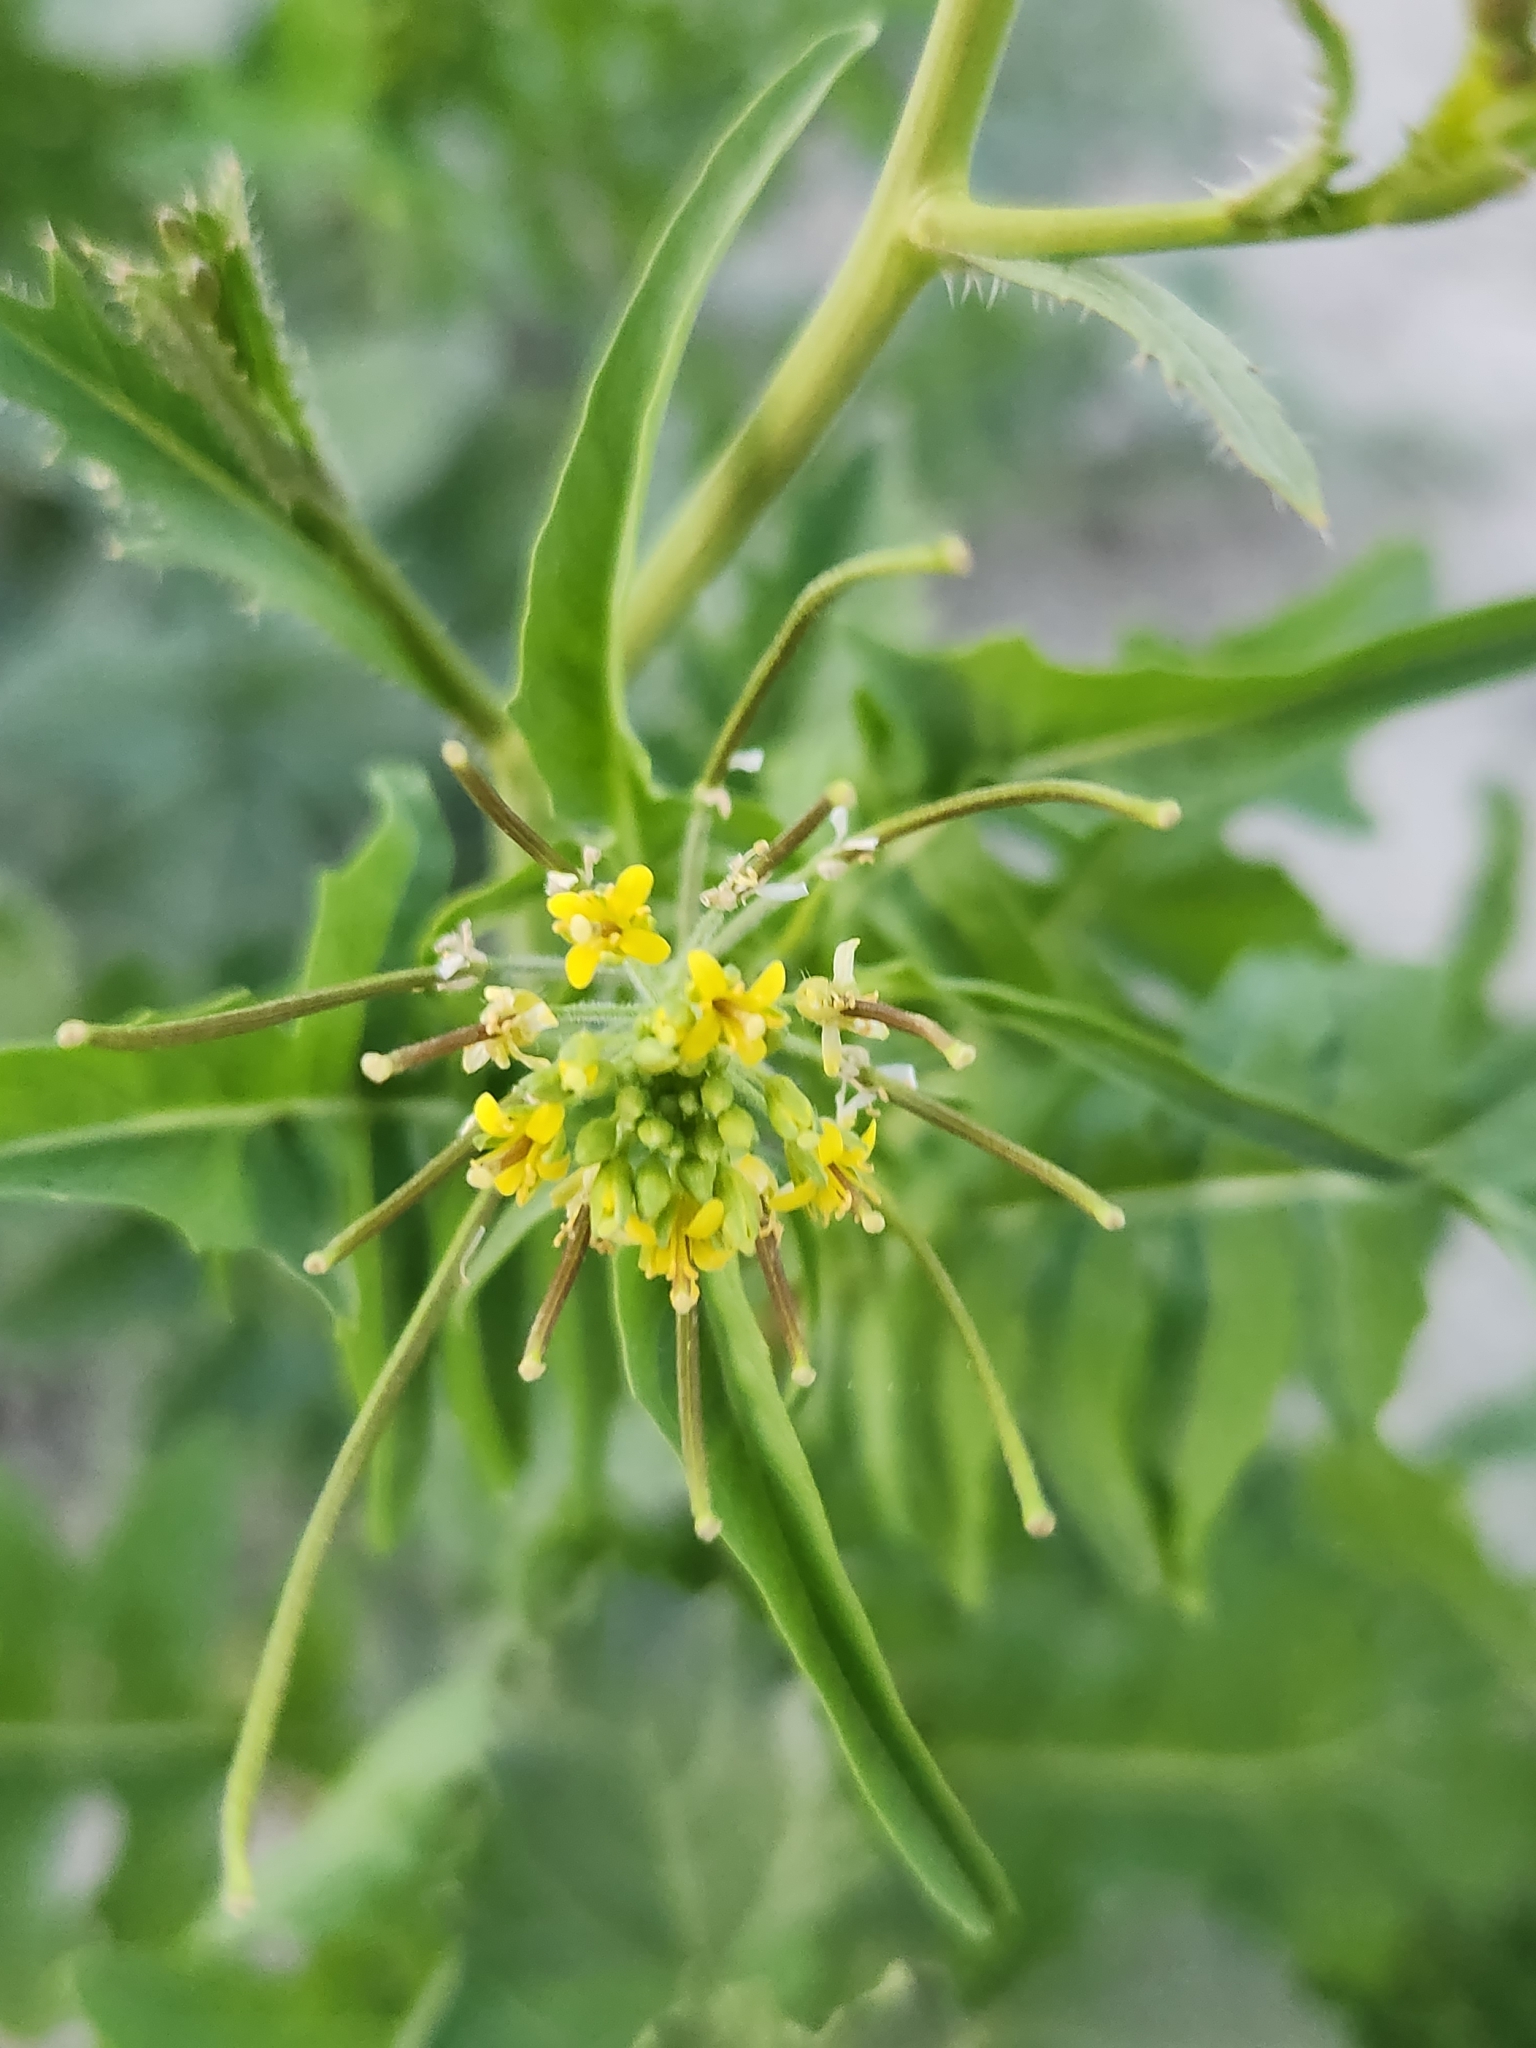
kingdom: Plantae
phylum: Tracheophyta
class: Magnoliopsida
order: Brassicales
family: Brassicaceae
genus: Sisymbrium
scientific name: Sisymbrium irio
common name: London rocket
